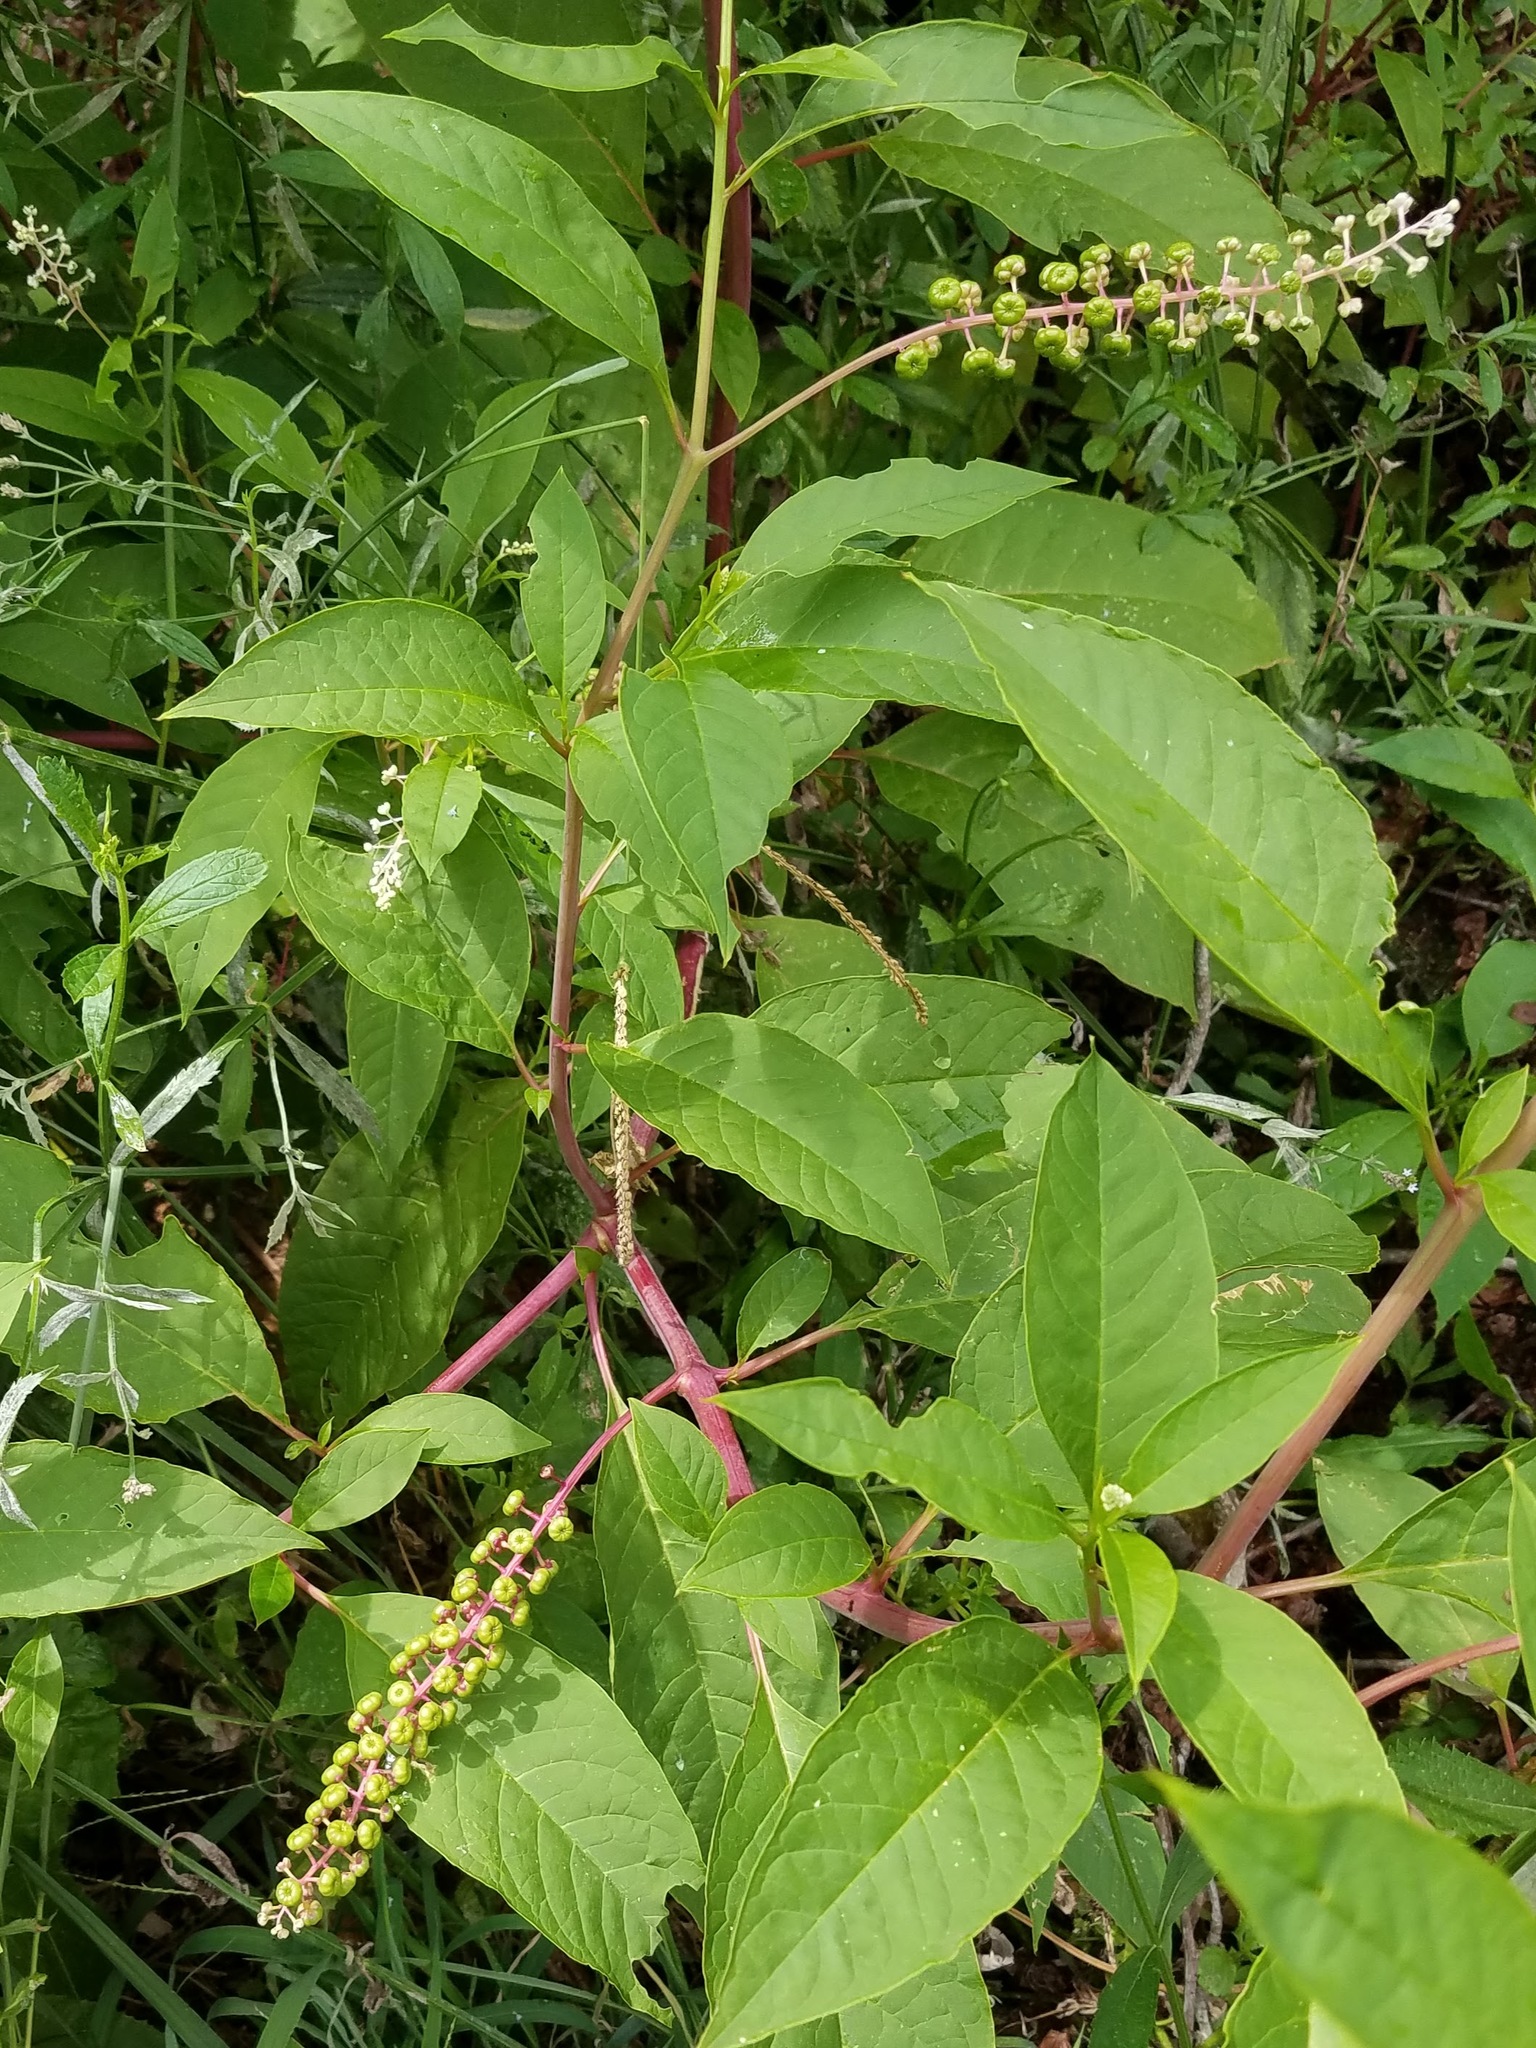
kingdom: Plantae
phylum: Tracheophyta
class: Magnoliopsida
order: Caryophyllales
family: Phytolaccaceae
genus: Phytolacca
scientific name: Phytolacca americana
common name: American pokeweed
